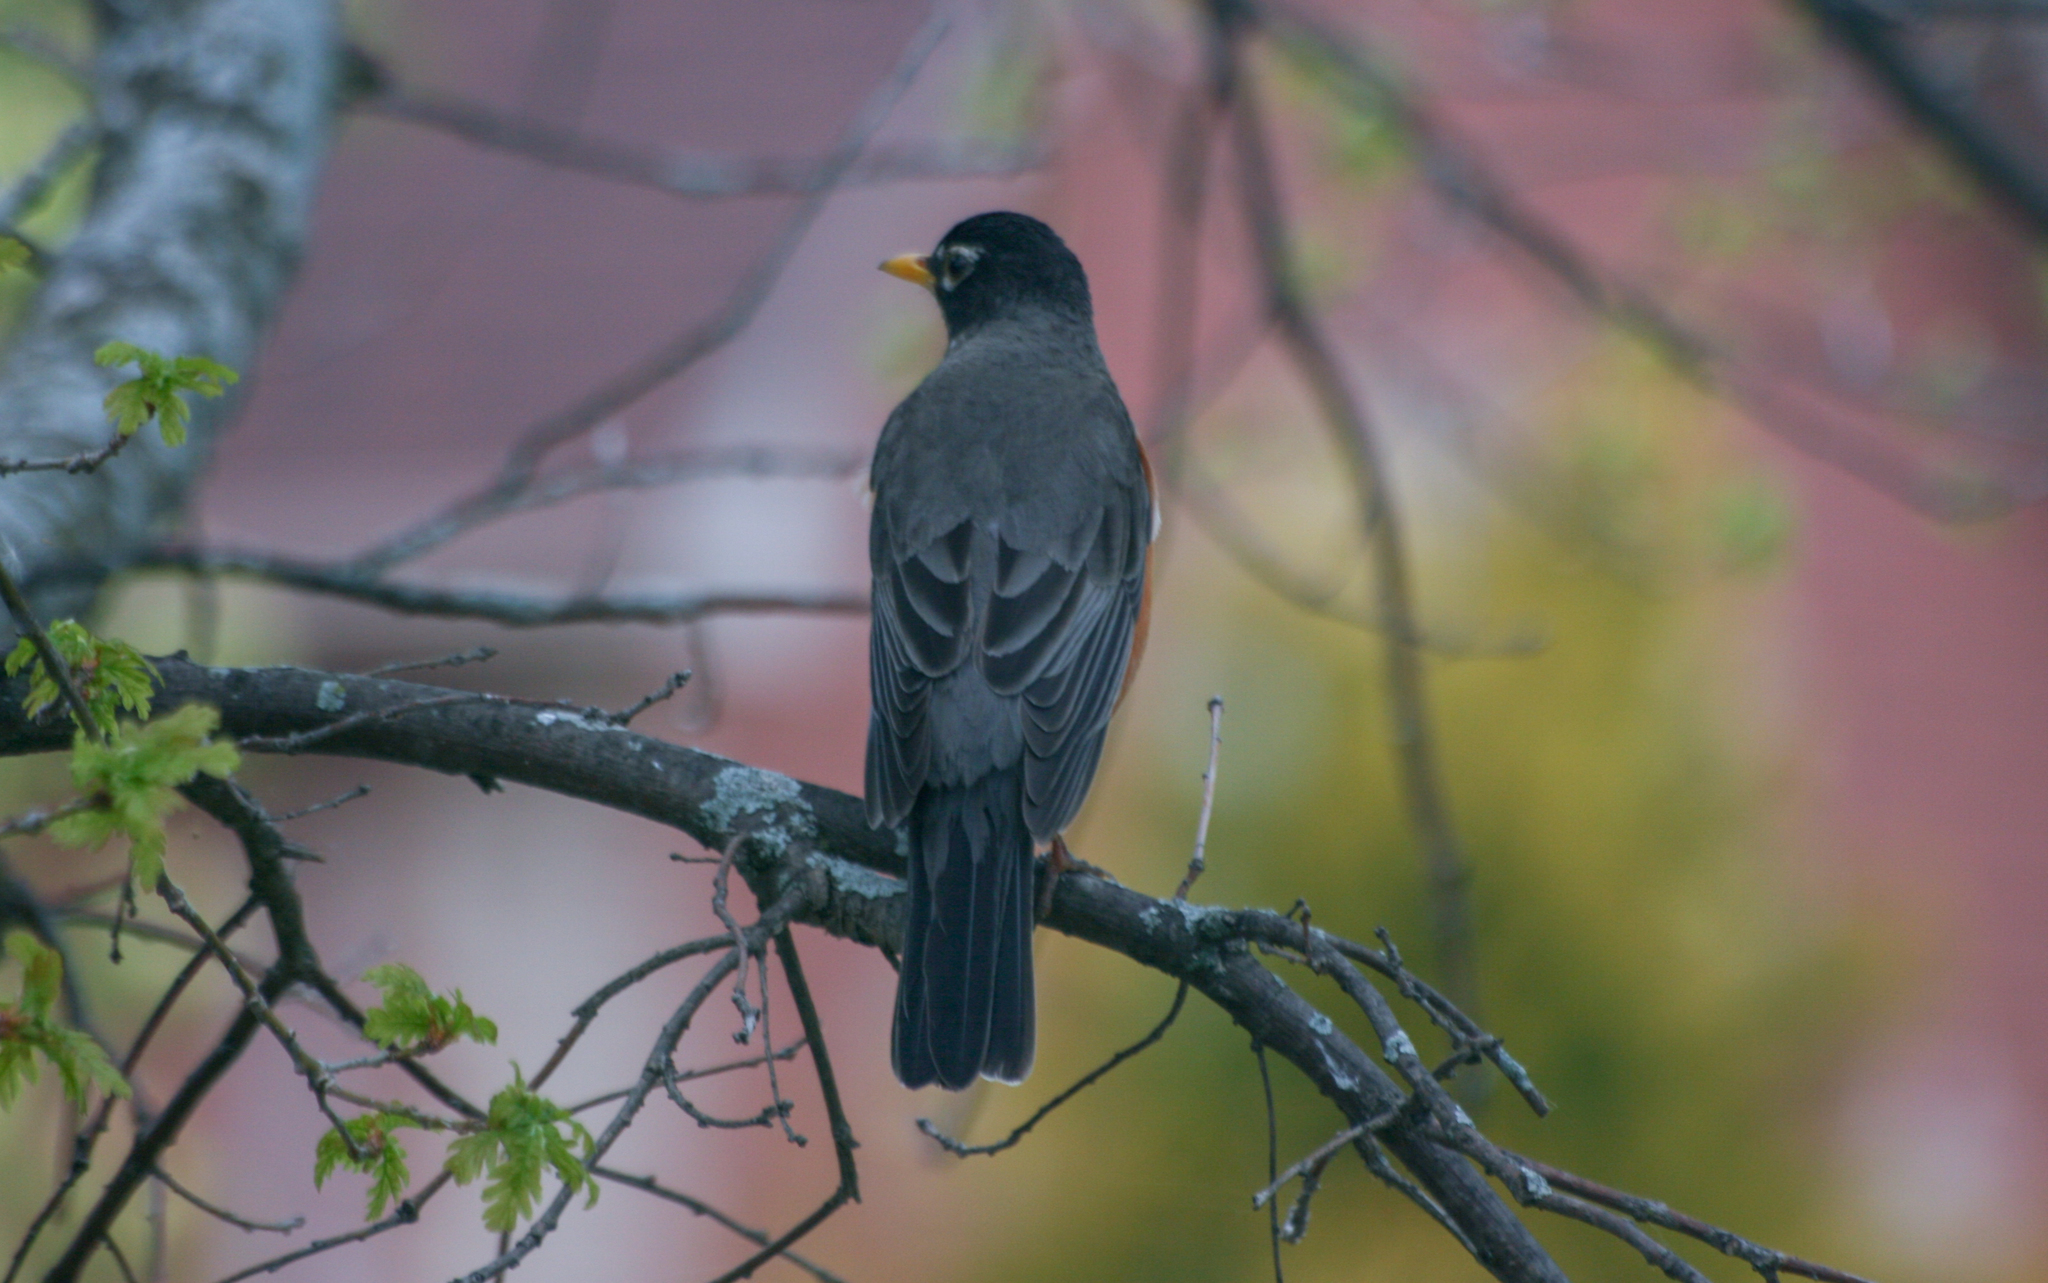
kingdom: Animalia
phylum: Chordata
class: Aves
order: Passeriformes
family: Turdidae
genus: Turdus
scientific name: Turdus migratorius
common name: American robin
